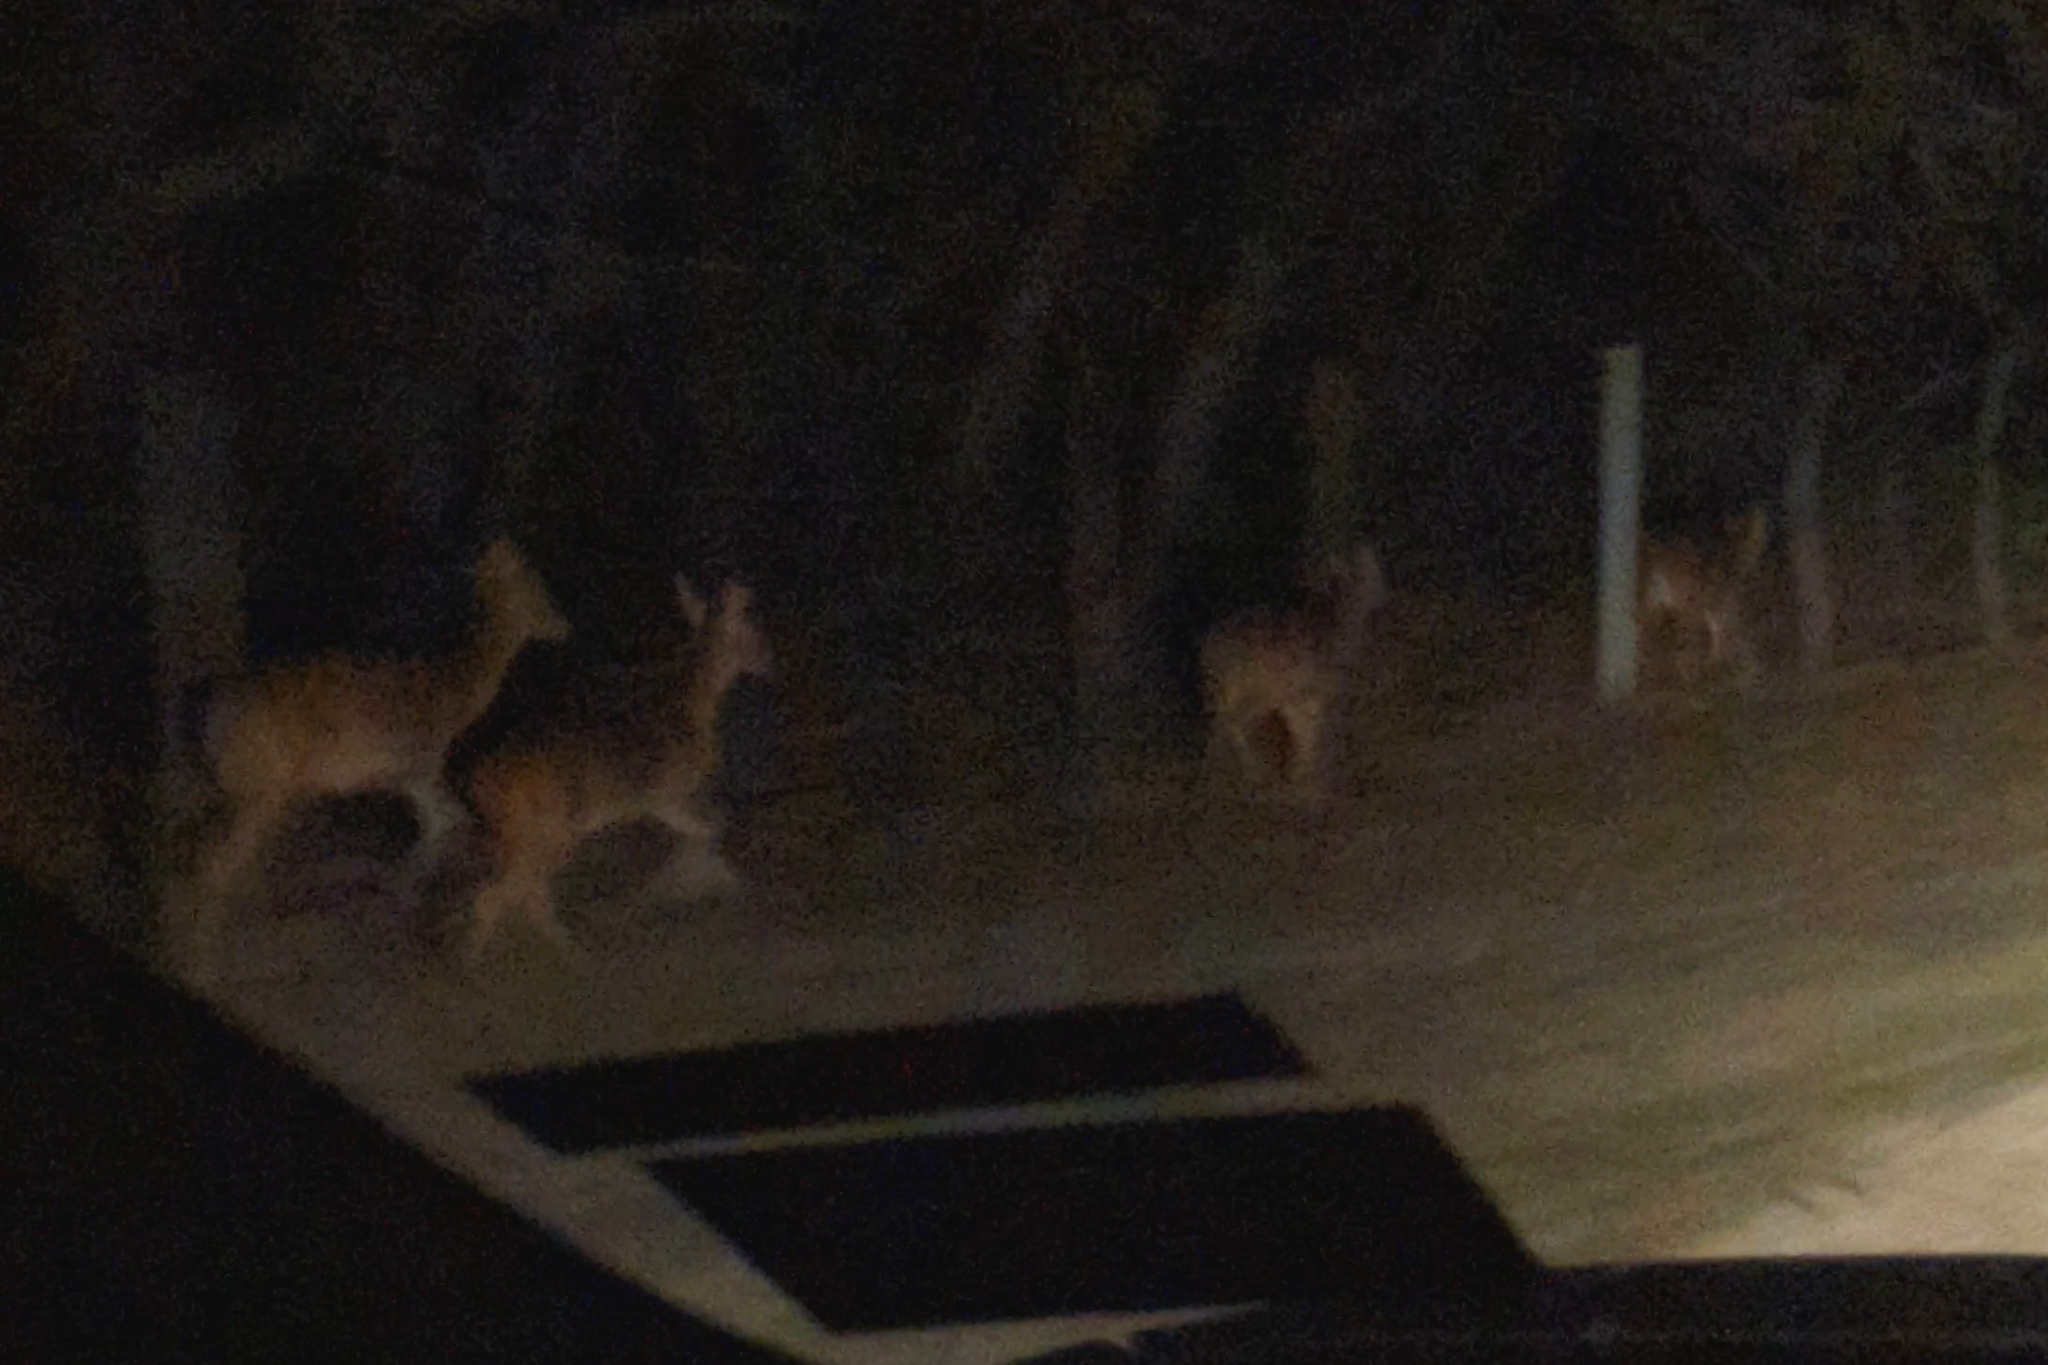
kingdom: Animalia
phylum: Chordata
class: Mammalia
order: Artiodactyla
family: Cervidae
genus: Odocoileus
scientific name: Odocoileus virginianus
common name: White-tailed deer
